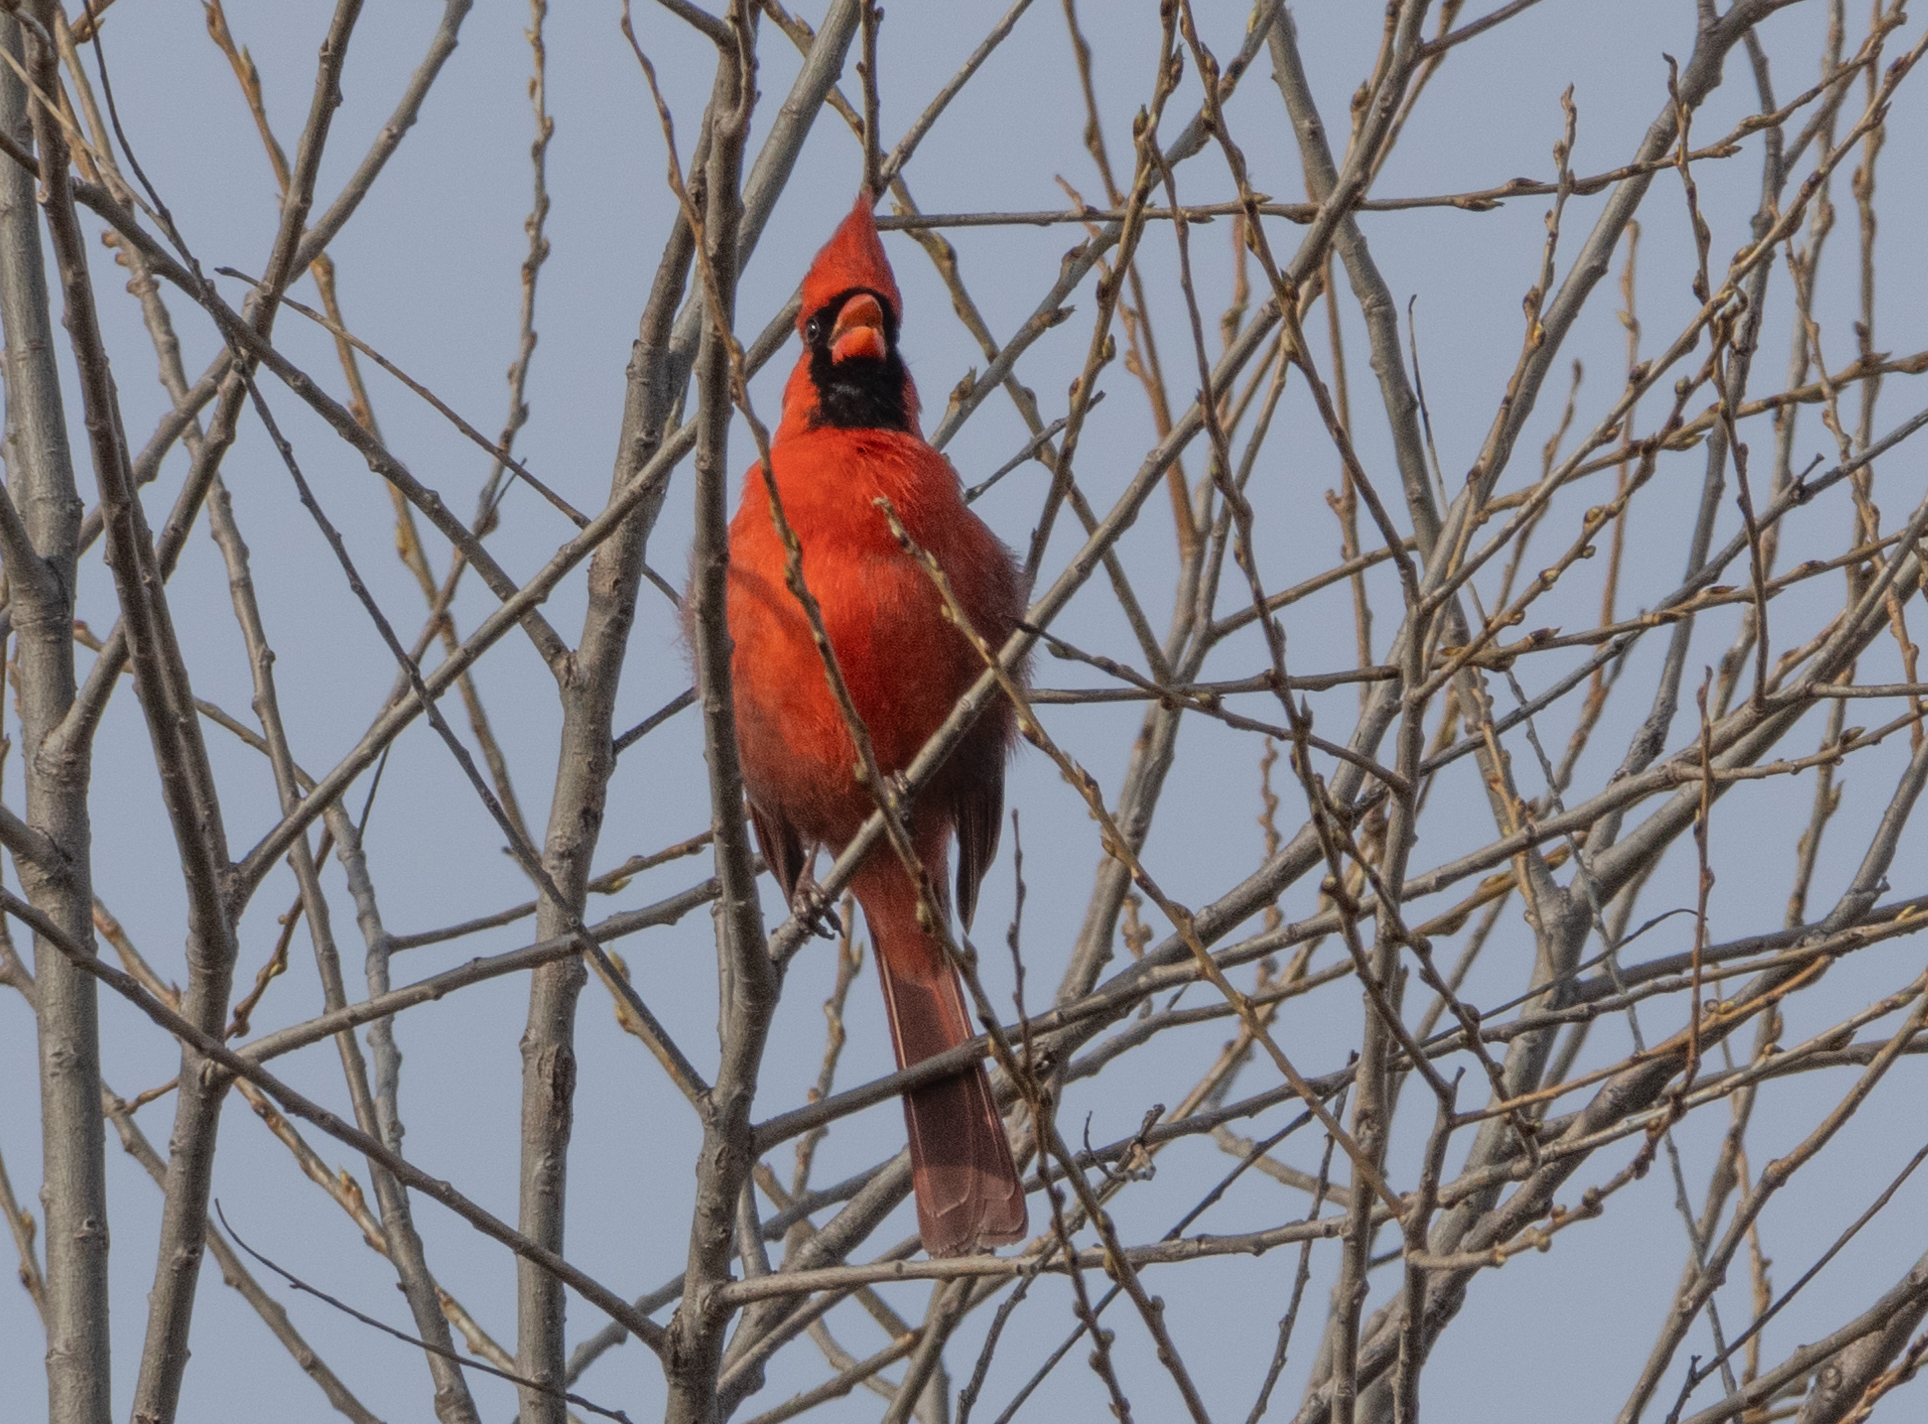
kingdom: Animalia
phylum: Chordata
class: Aves
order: Passeriformes
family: Cardinalidae
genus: Cardinalis
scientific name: Cardinalis cardinalis
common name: Northern cardinal
